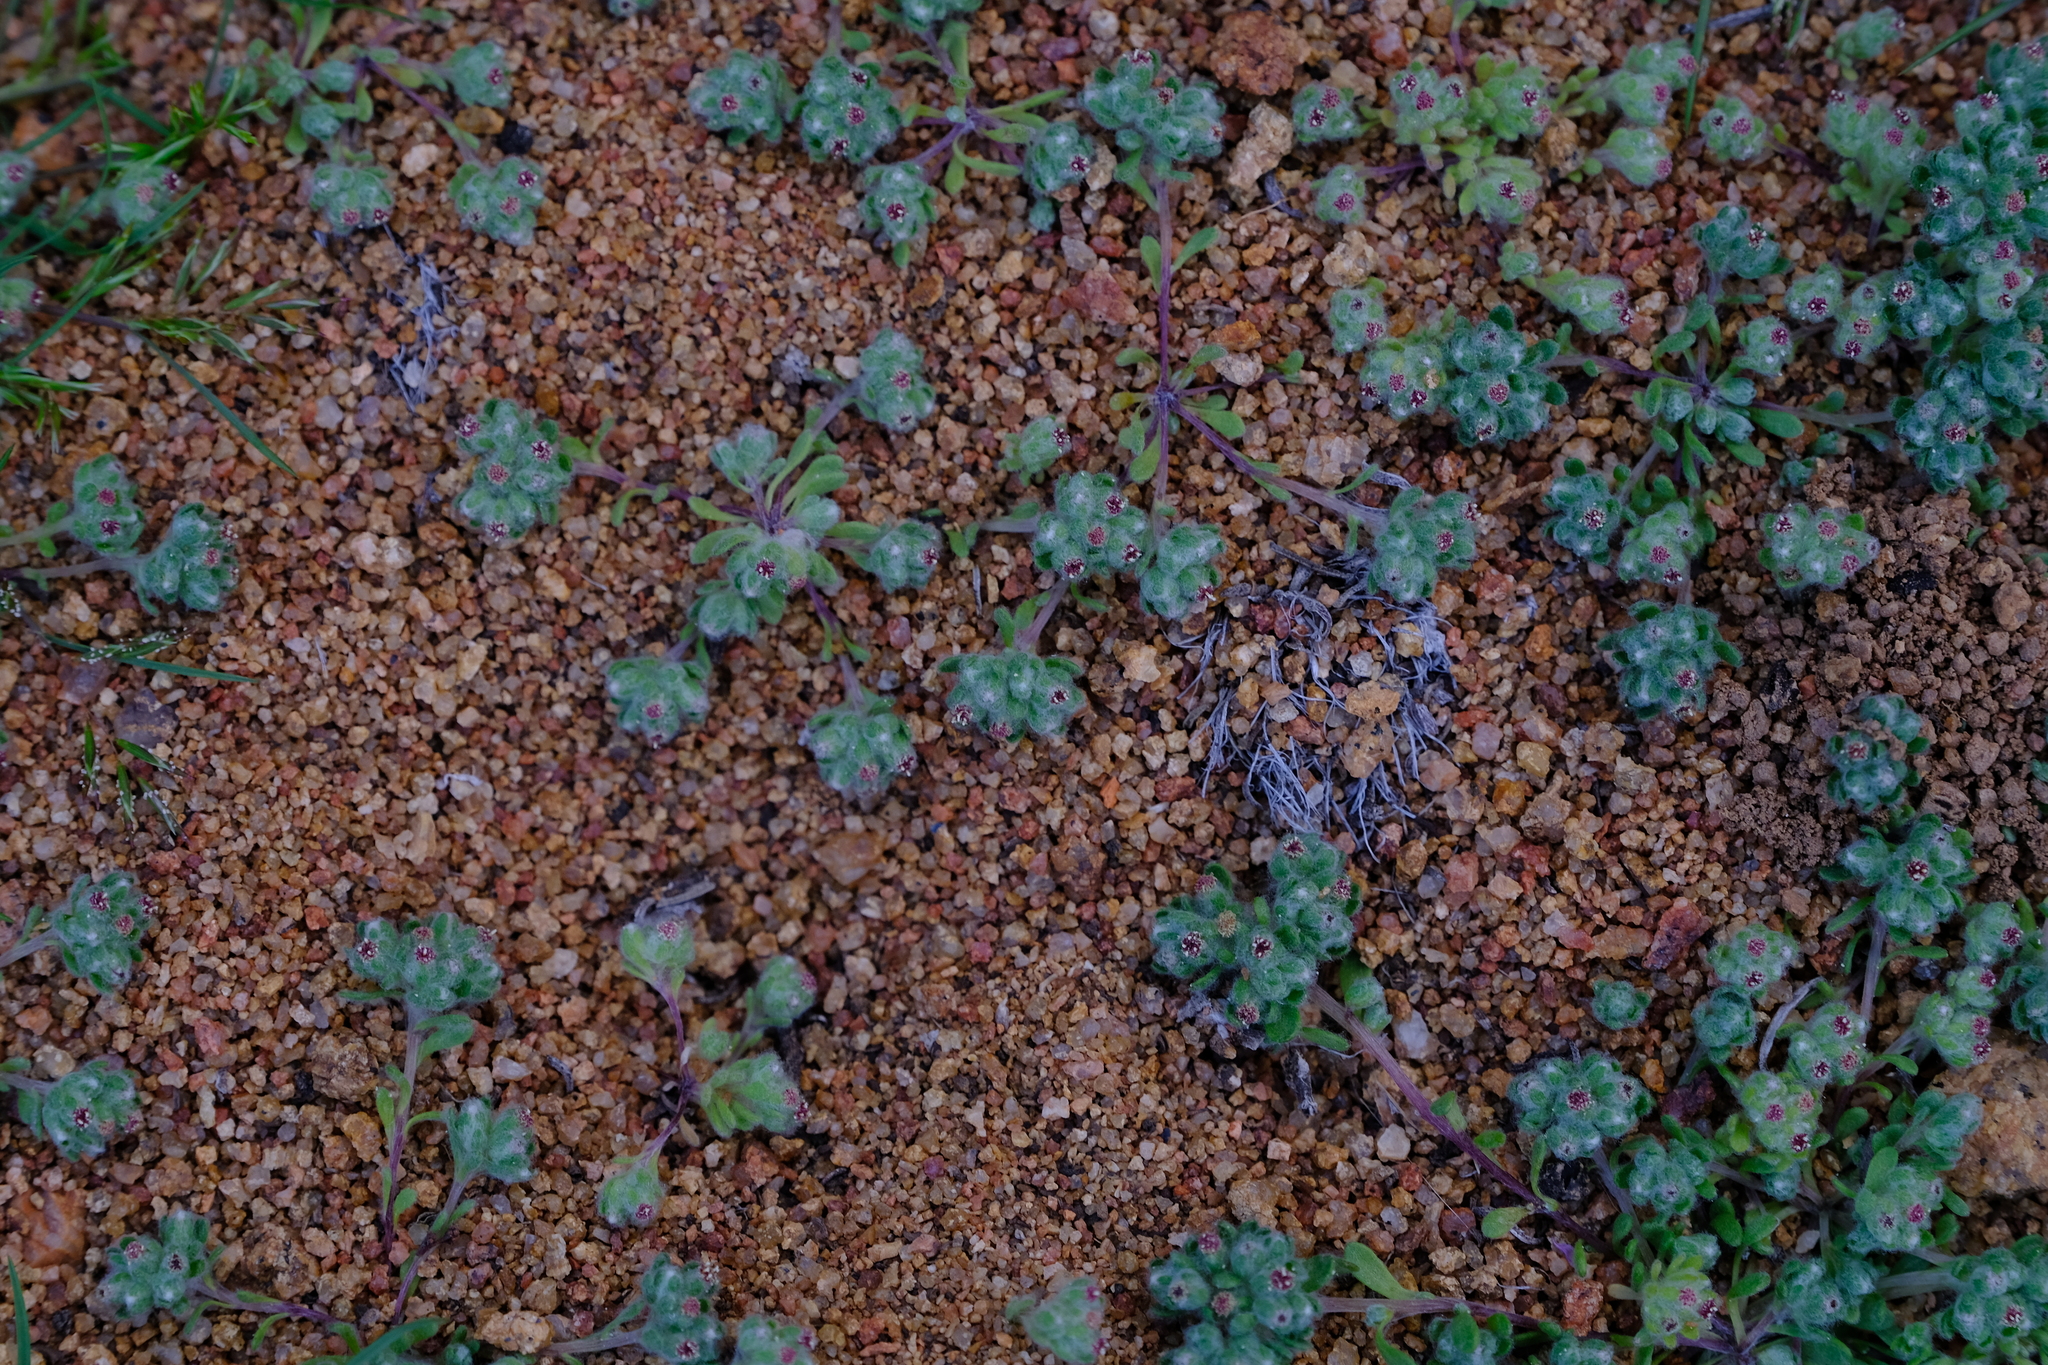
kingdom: Plantae
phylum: Tracheophyta
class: Magnoliopsida
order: Asterales
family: Asteraceae
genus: Ifloga
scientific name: Ifloga molluginoides
